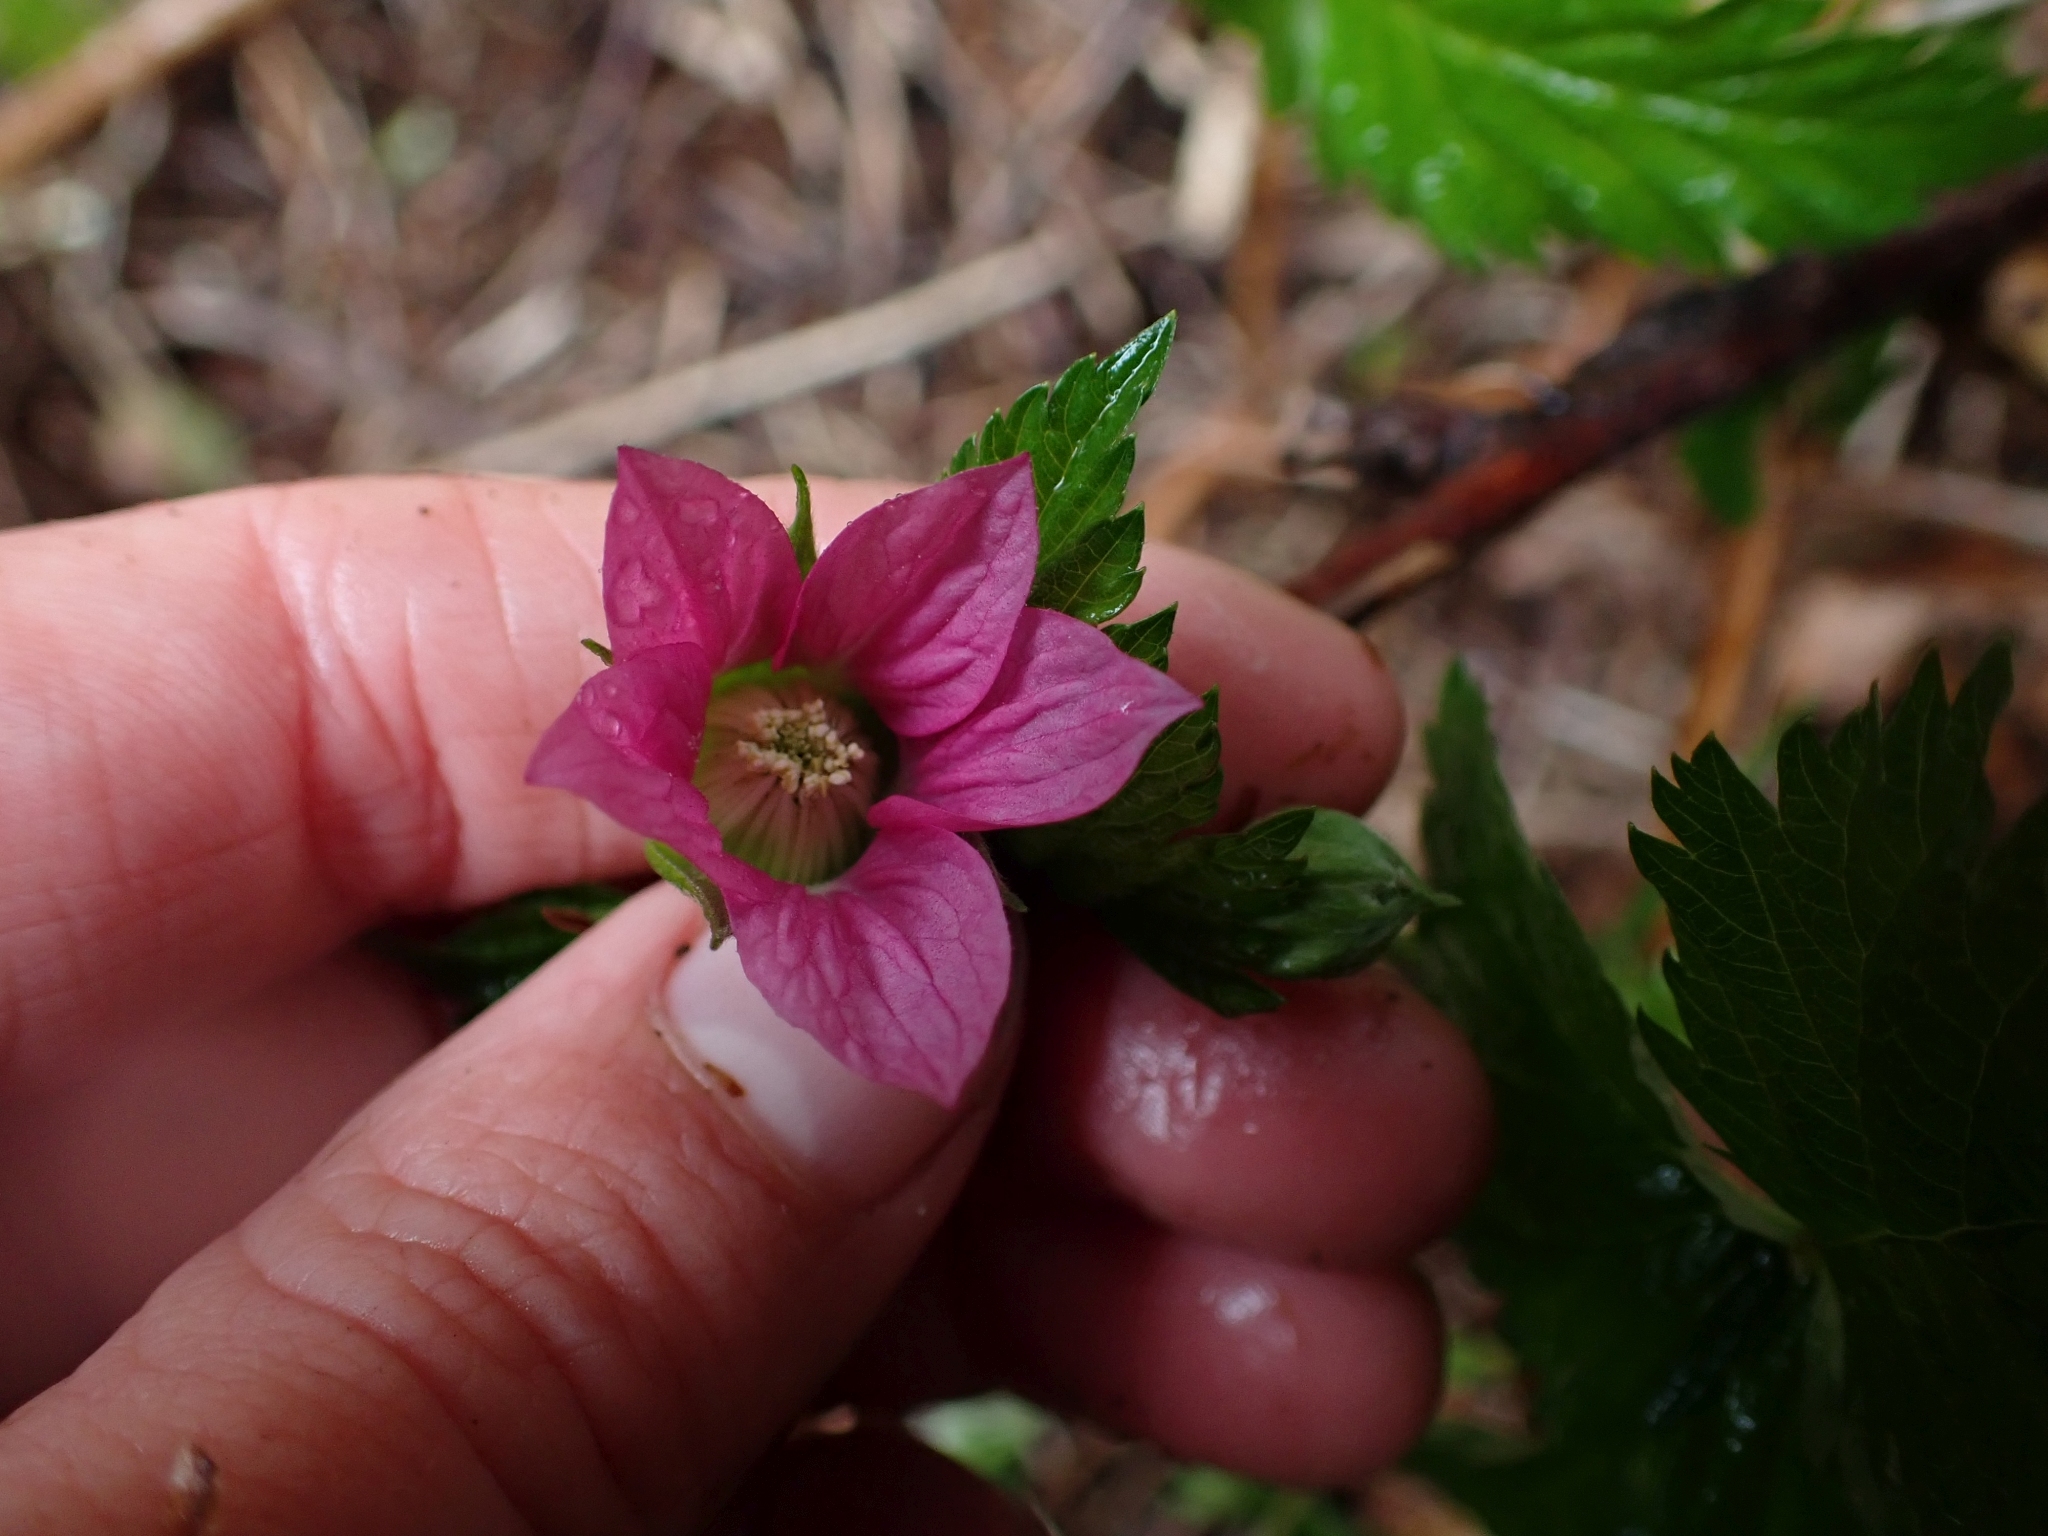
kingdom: Plantae
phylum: Tracheophyta
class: Magnoliopsida
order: Rosales
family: Rosaceae
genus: Rubus
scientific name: Rubus spectabilis
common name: Salmonberry
